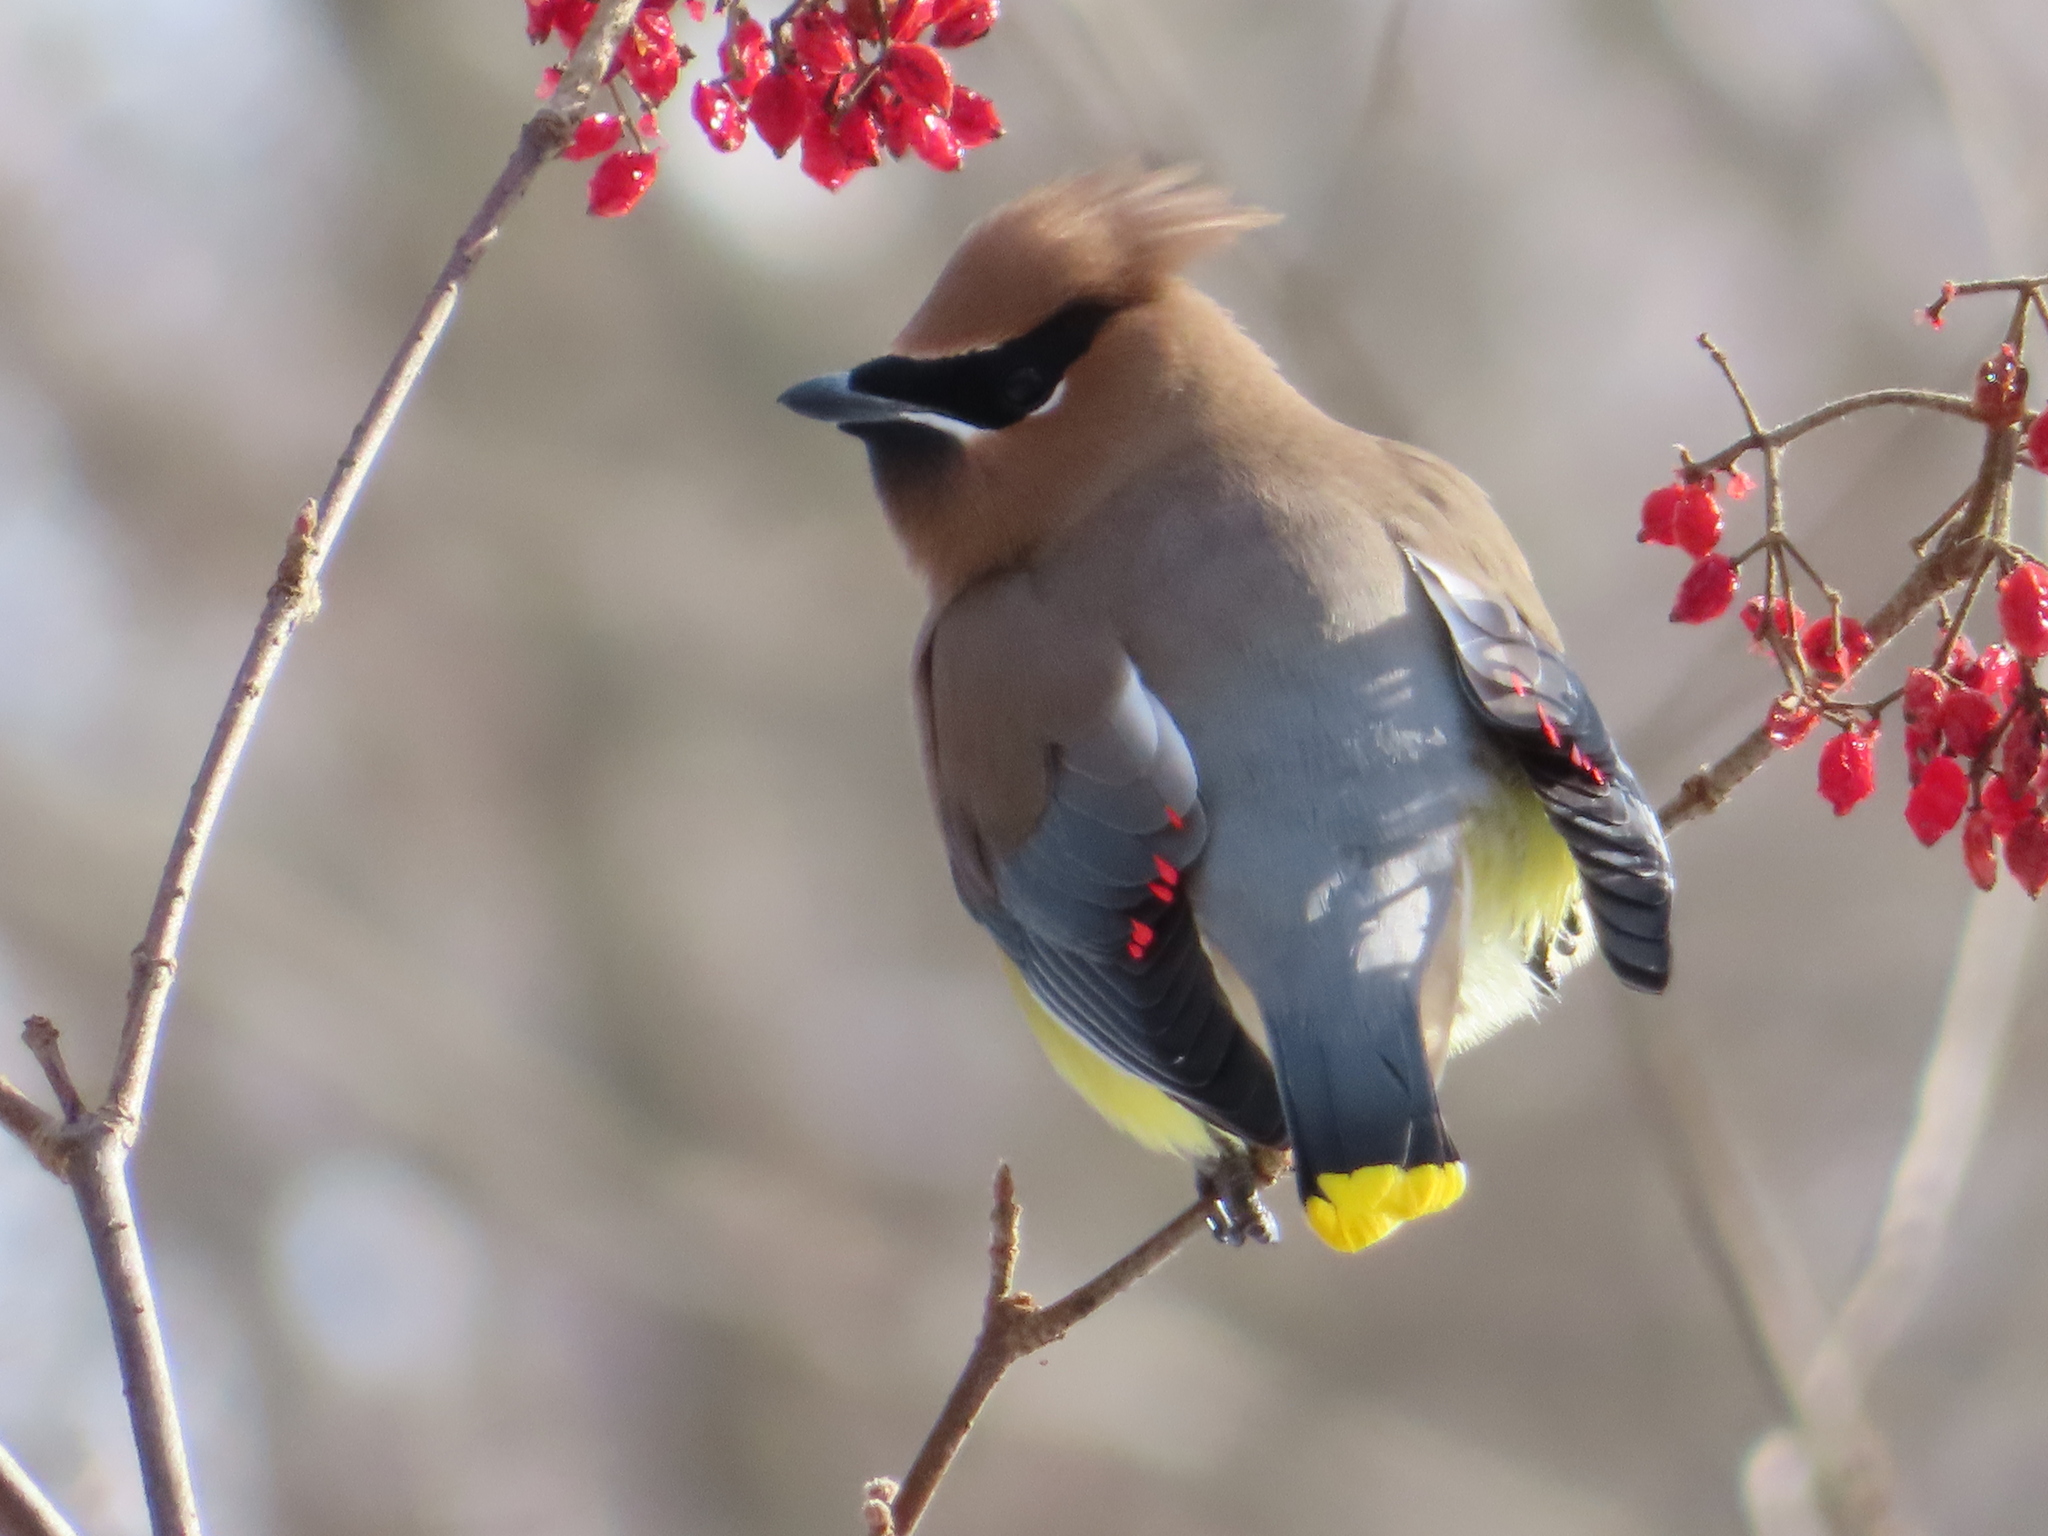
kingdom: Animalia
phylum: Chordata
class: Aves
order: Passeriformes
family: Bombycillidae
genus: Bombycilla
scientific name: Bombycilla cedrorum
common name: Cedar waxwing
